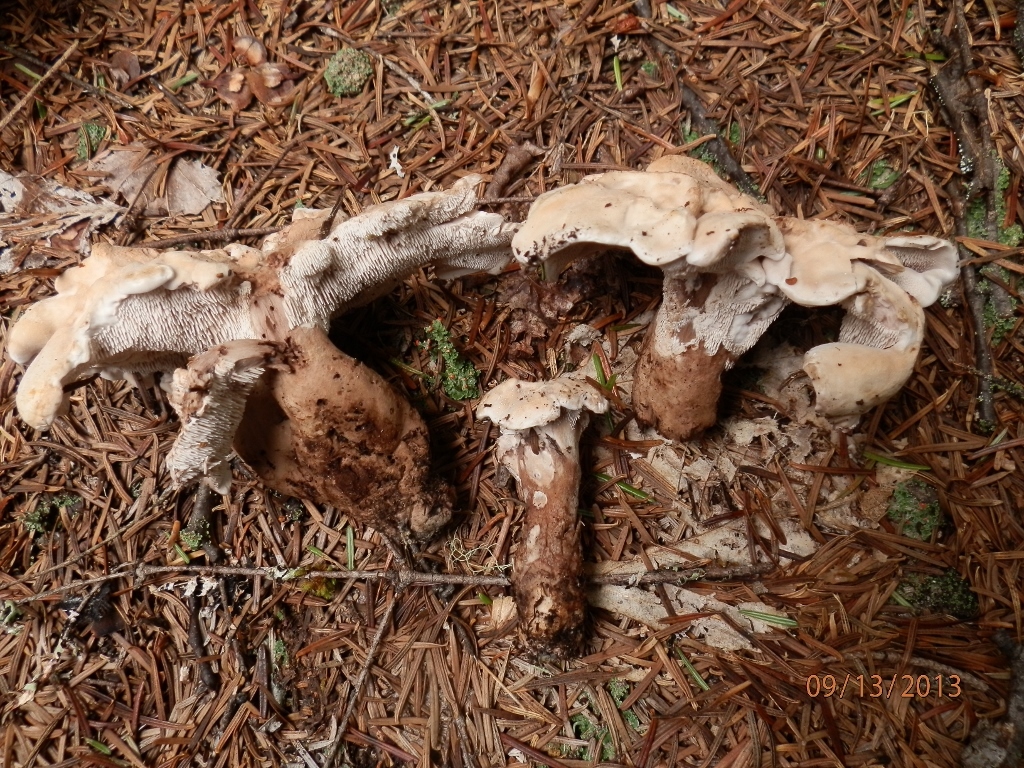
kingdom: Fungi
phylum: Basidiomycota
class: Agaricomycetes
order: Thelephorales
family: Thelephoraceae
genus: Phellodon
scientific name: Phellodon fuligineoalbus
